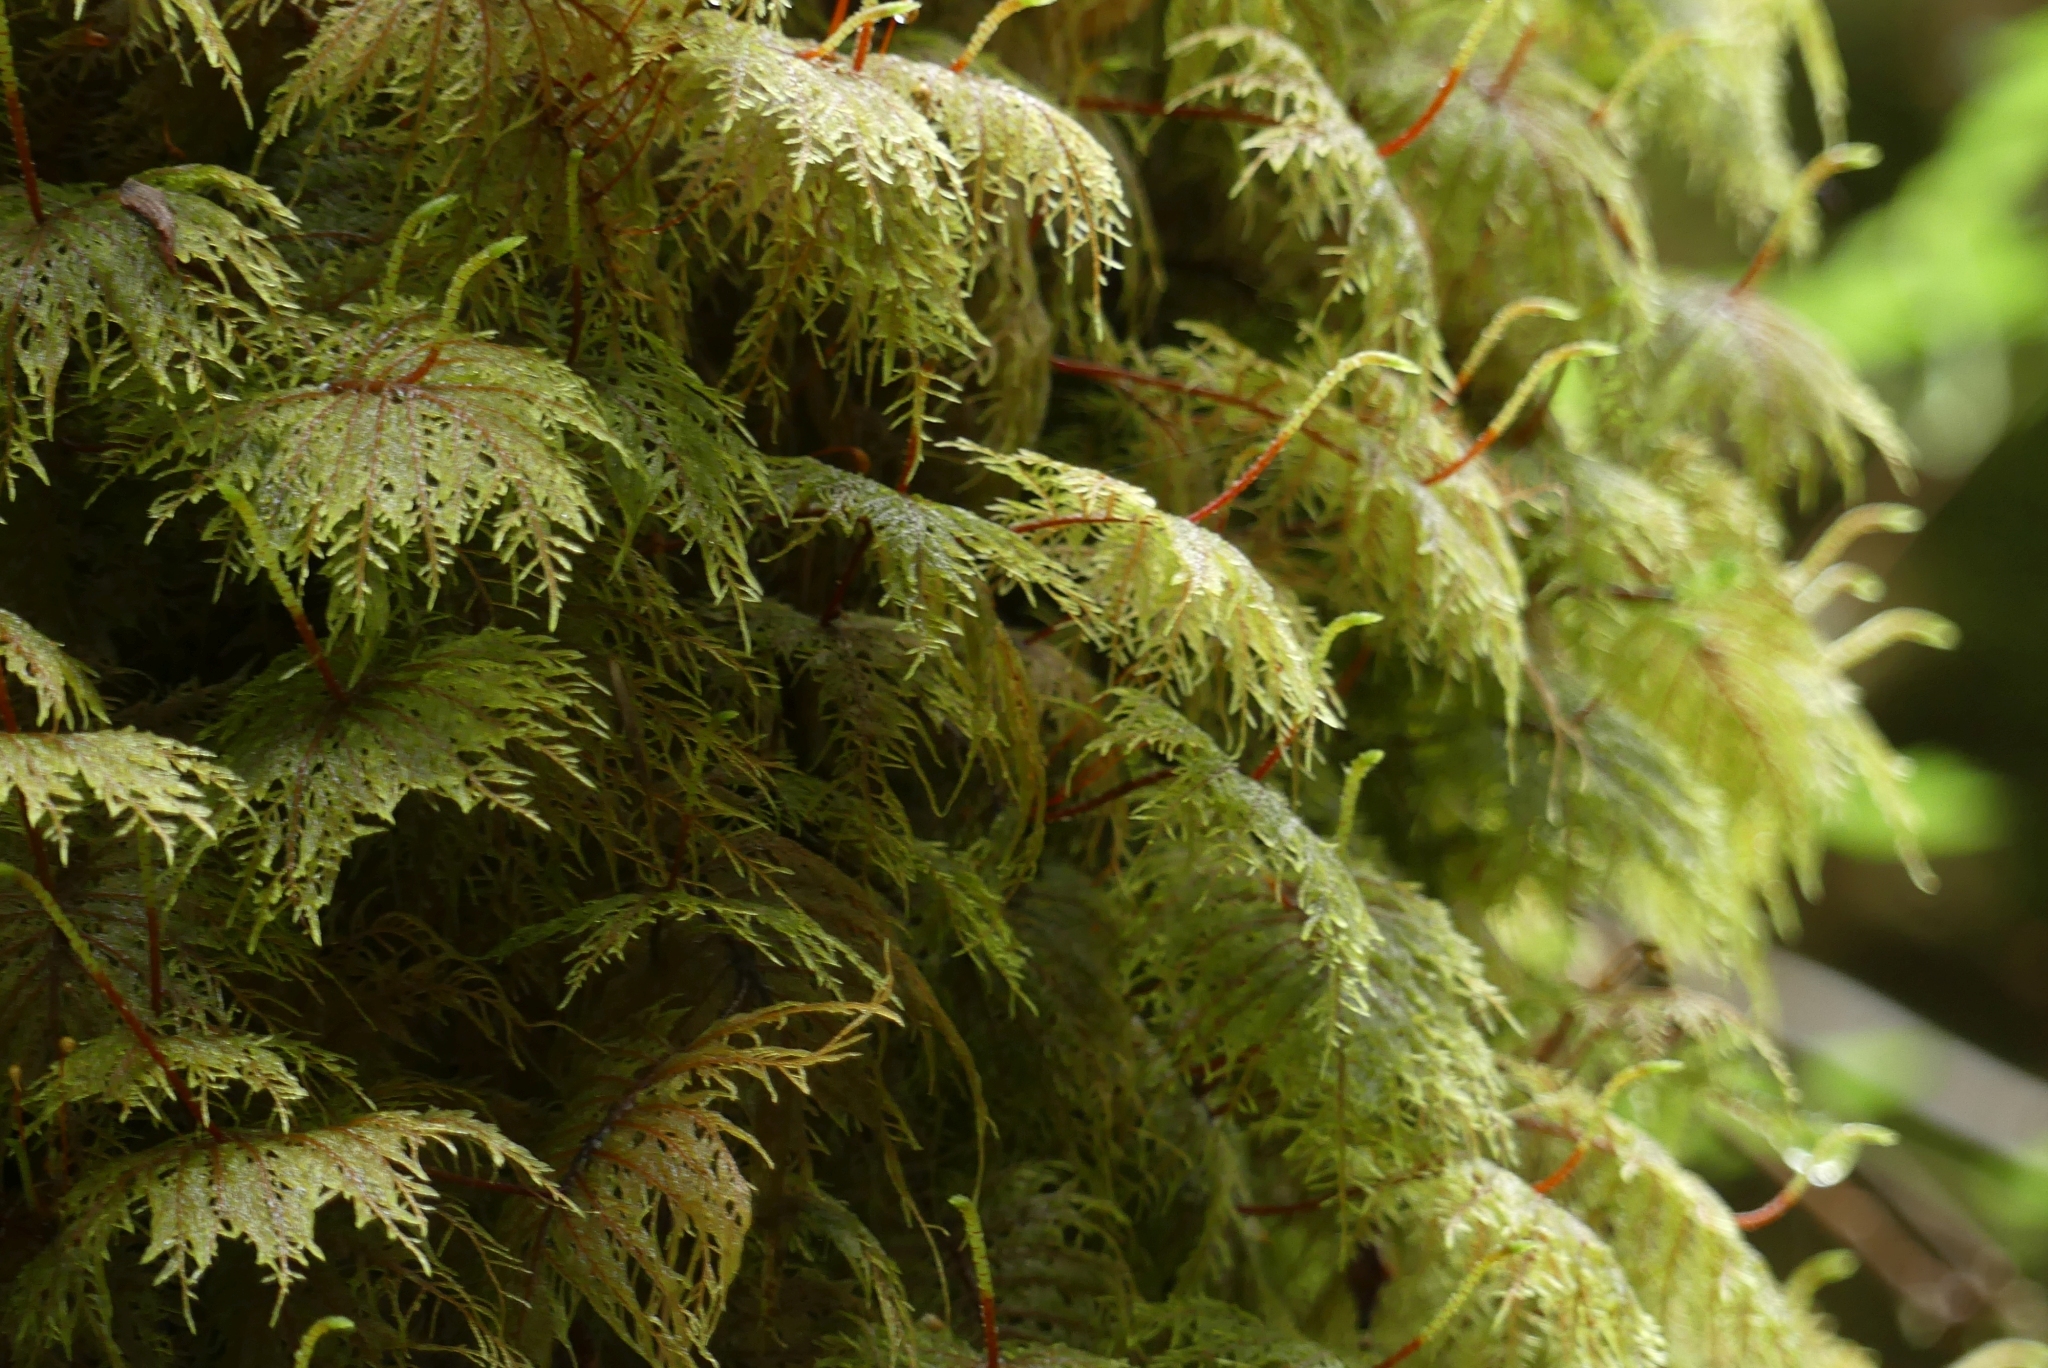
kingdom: Plantae
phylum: Bryophyta
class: Bryopsida
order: Hypnales
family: Hylocomiaceae
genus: Hylocomium
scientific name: Hylocomium splendens
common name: Stairstep moss
